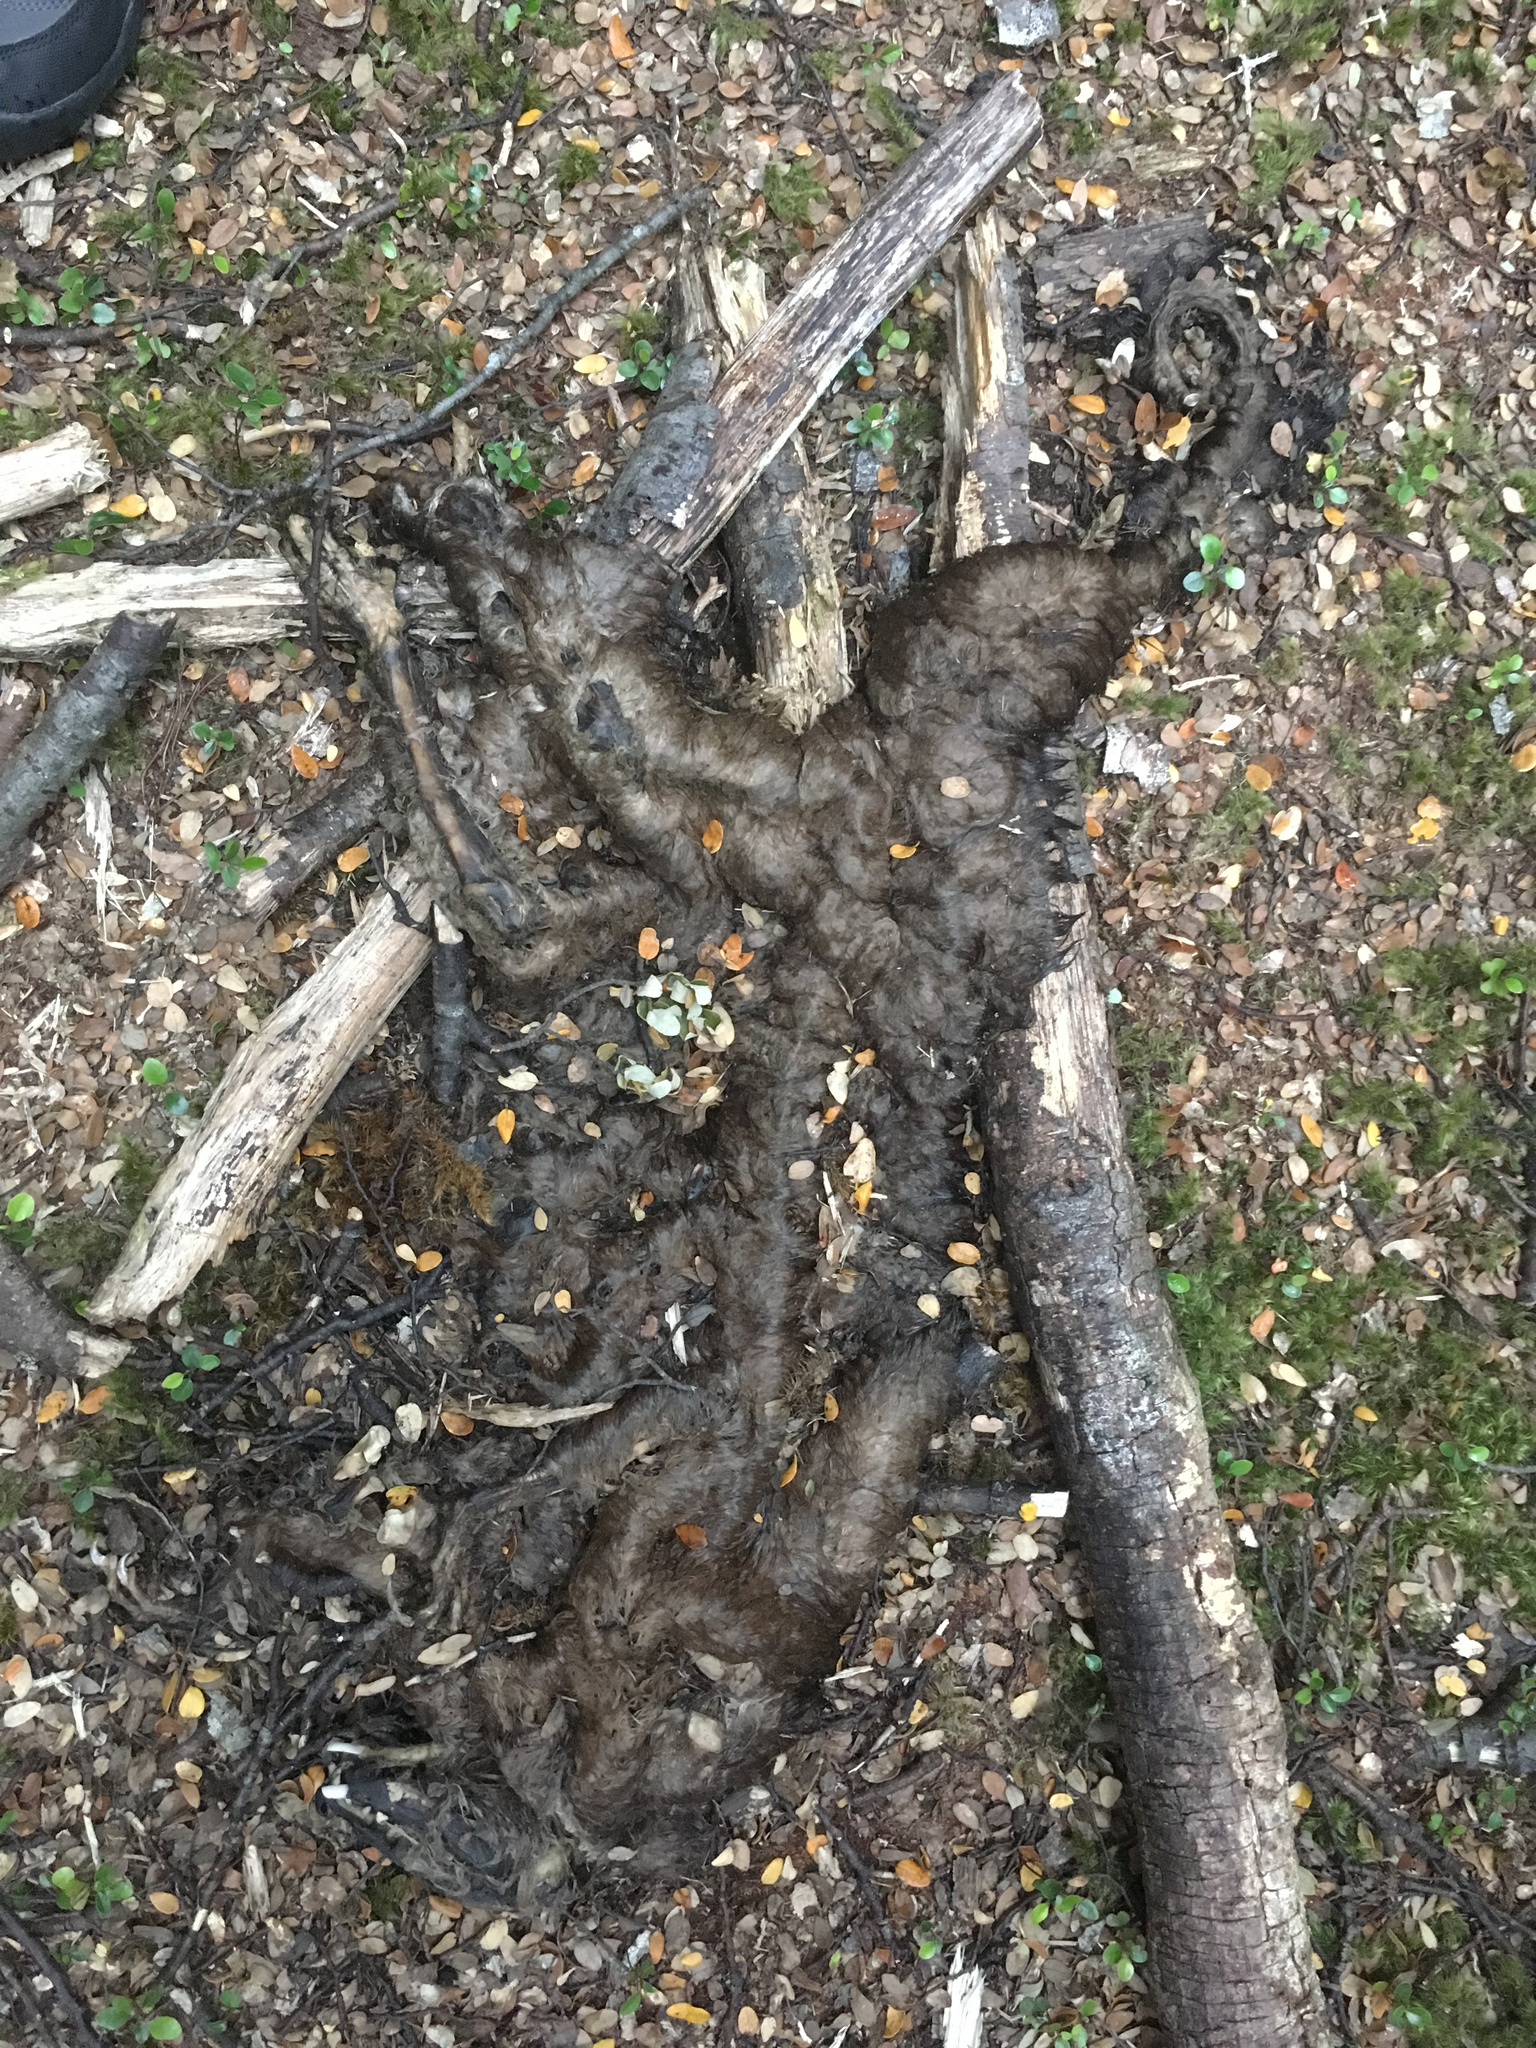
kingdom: Animalia
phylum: Chordata
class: Mammalia
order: Diprotodontia
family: Phalangeridae
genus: Trichosurus
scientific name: Trichosurus vulpecula
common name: Common brushtail
